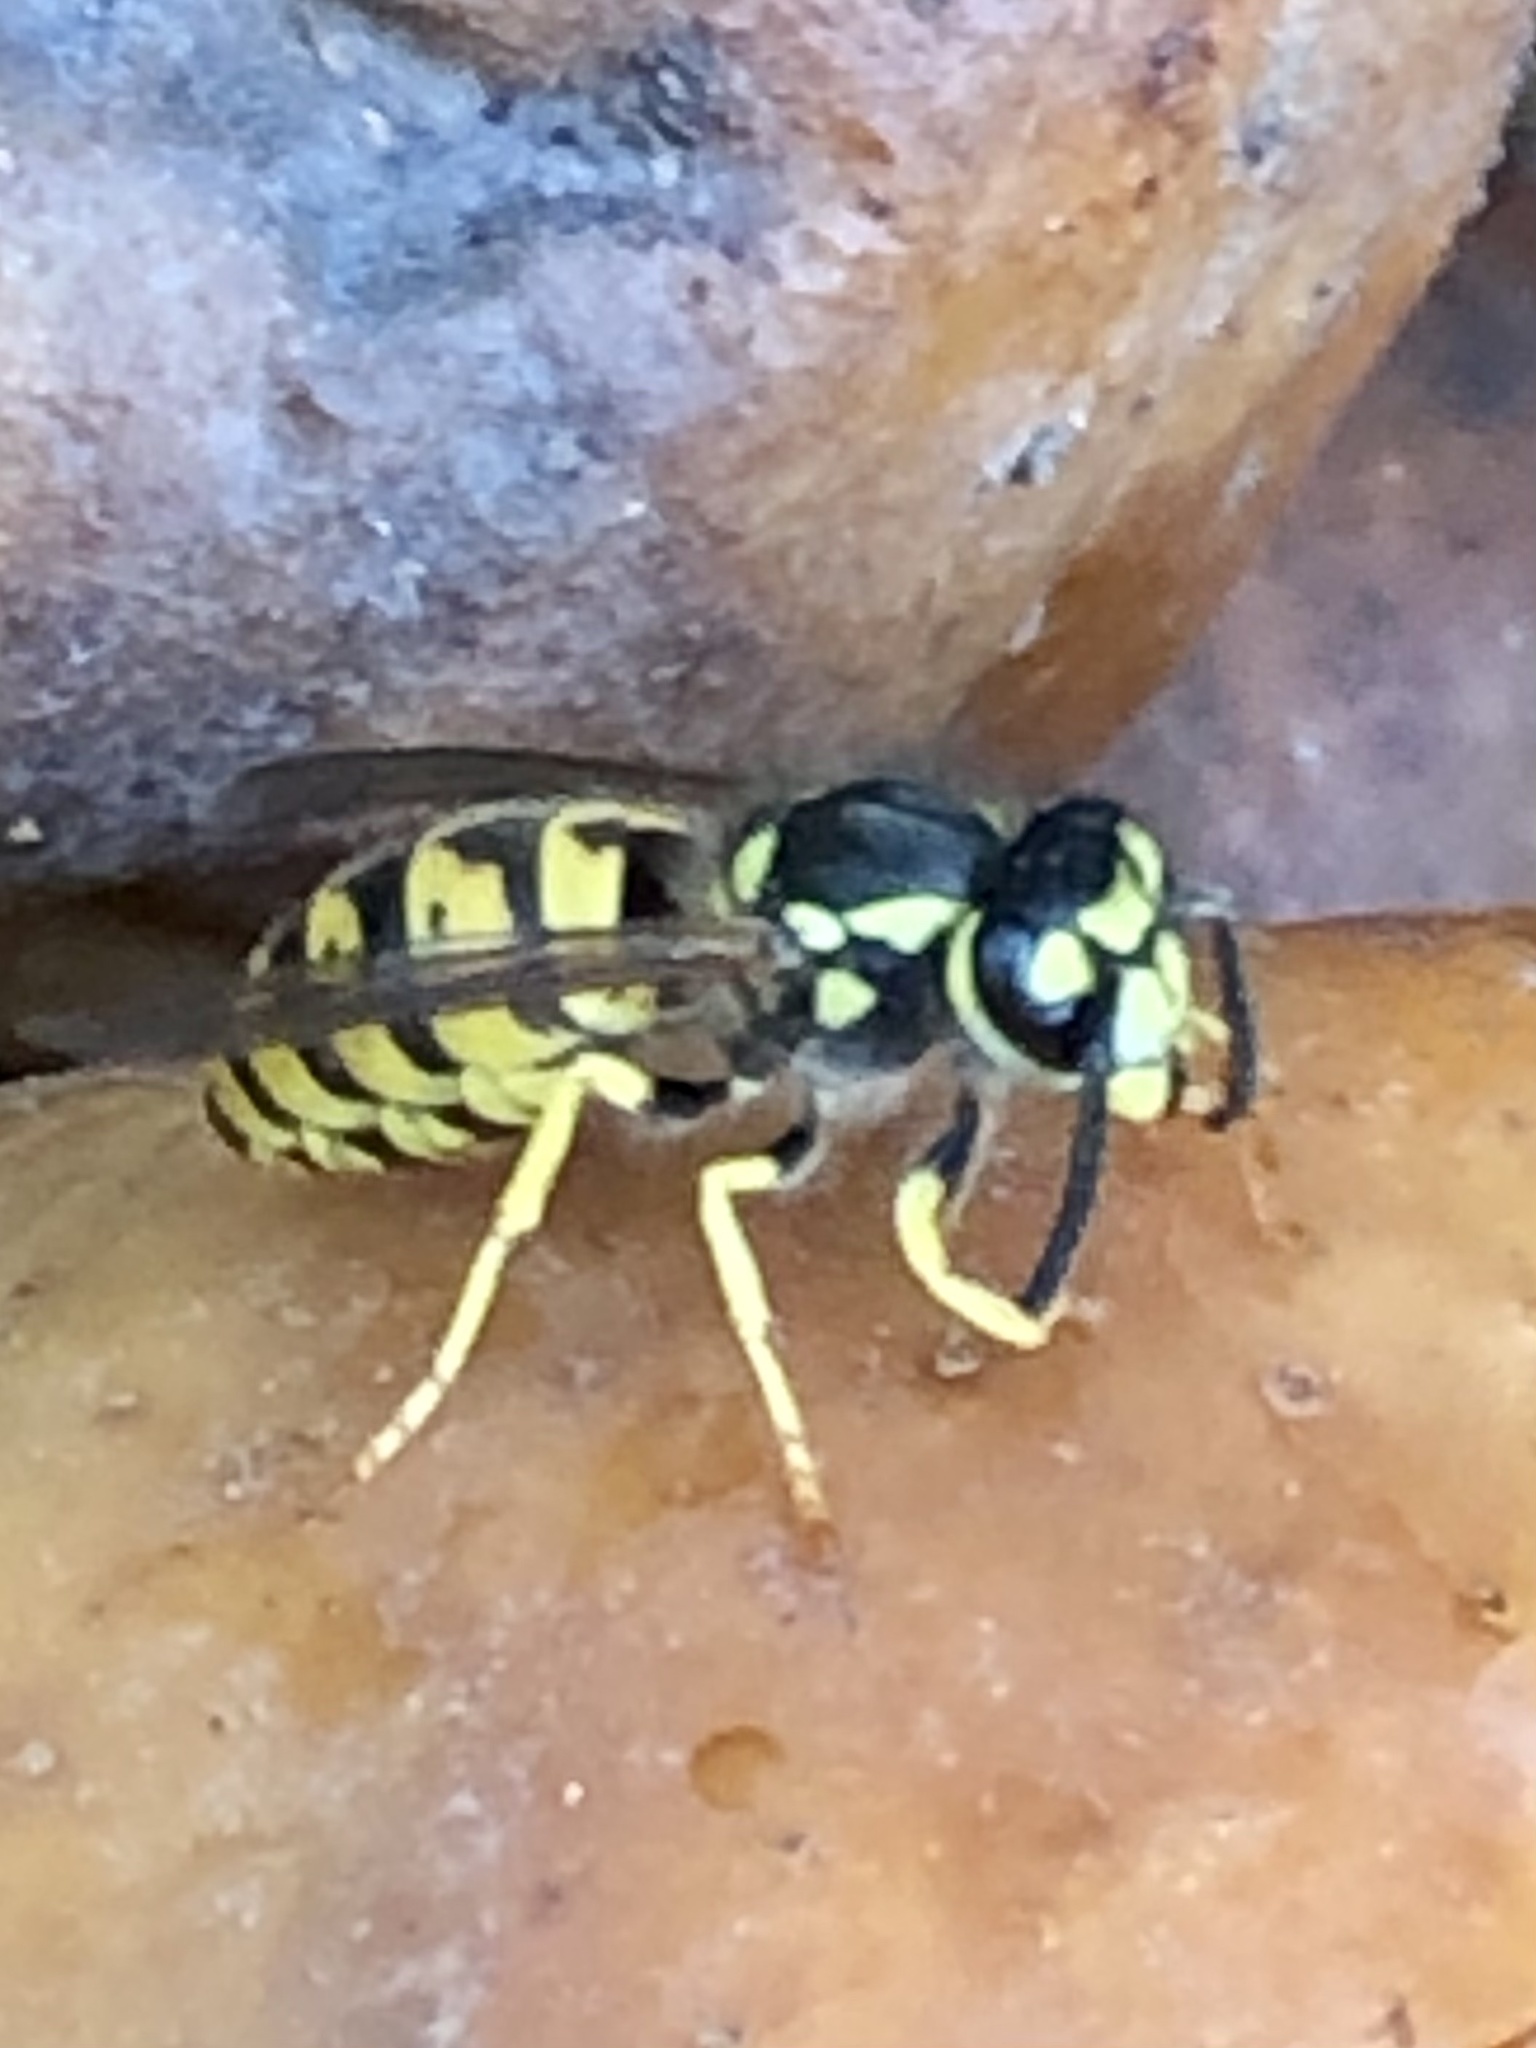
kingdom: Animalia
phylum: Arthropoda
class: Insecta
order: Hymenoptera
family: Vespidae
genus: Vespula
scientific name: Vespula germanica
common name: German wasp
